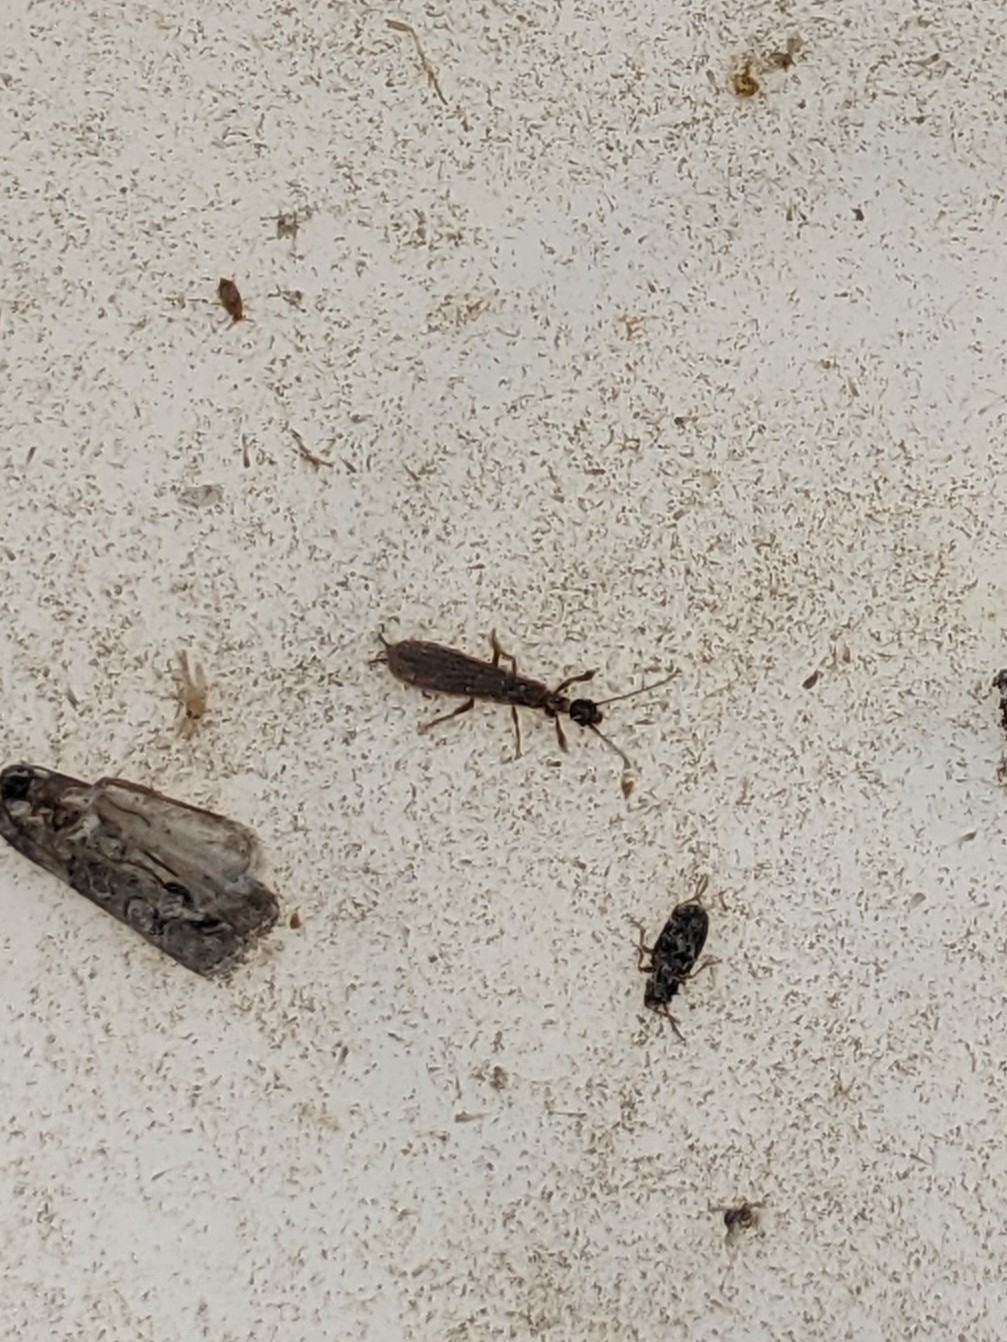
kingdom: Animalia
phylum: Arthropoda
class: Insecta
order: Embioptera
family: Oligotomidae
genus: Oligotoma
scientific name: Oligotoma nigra
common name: Black webspinner
